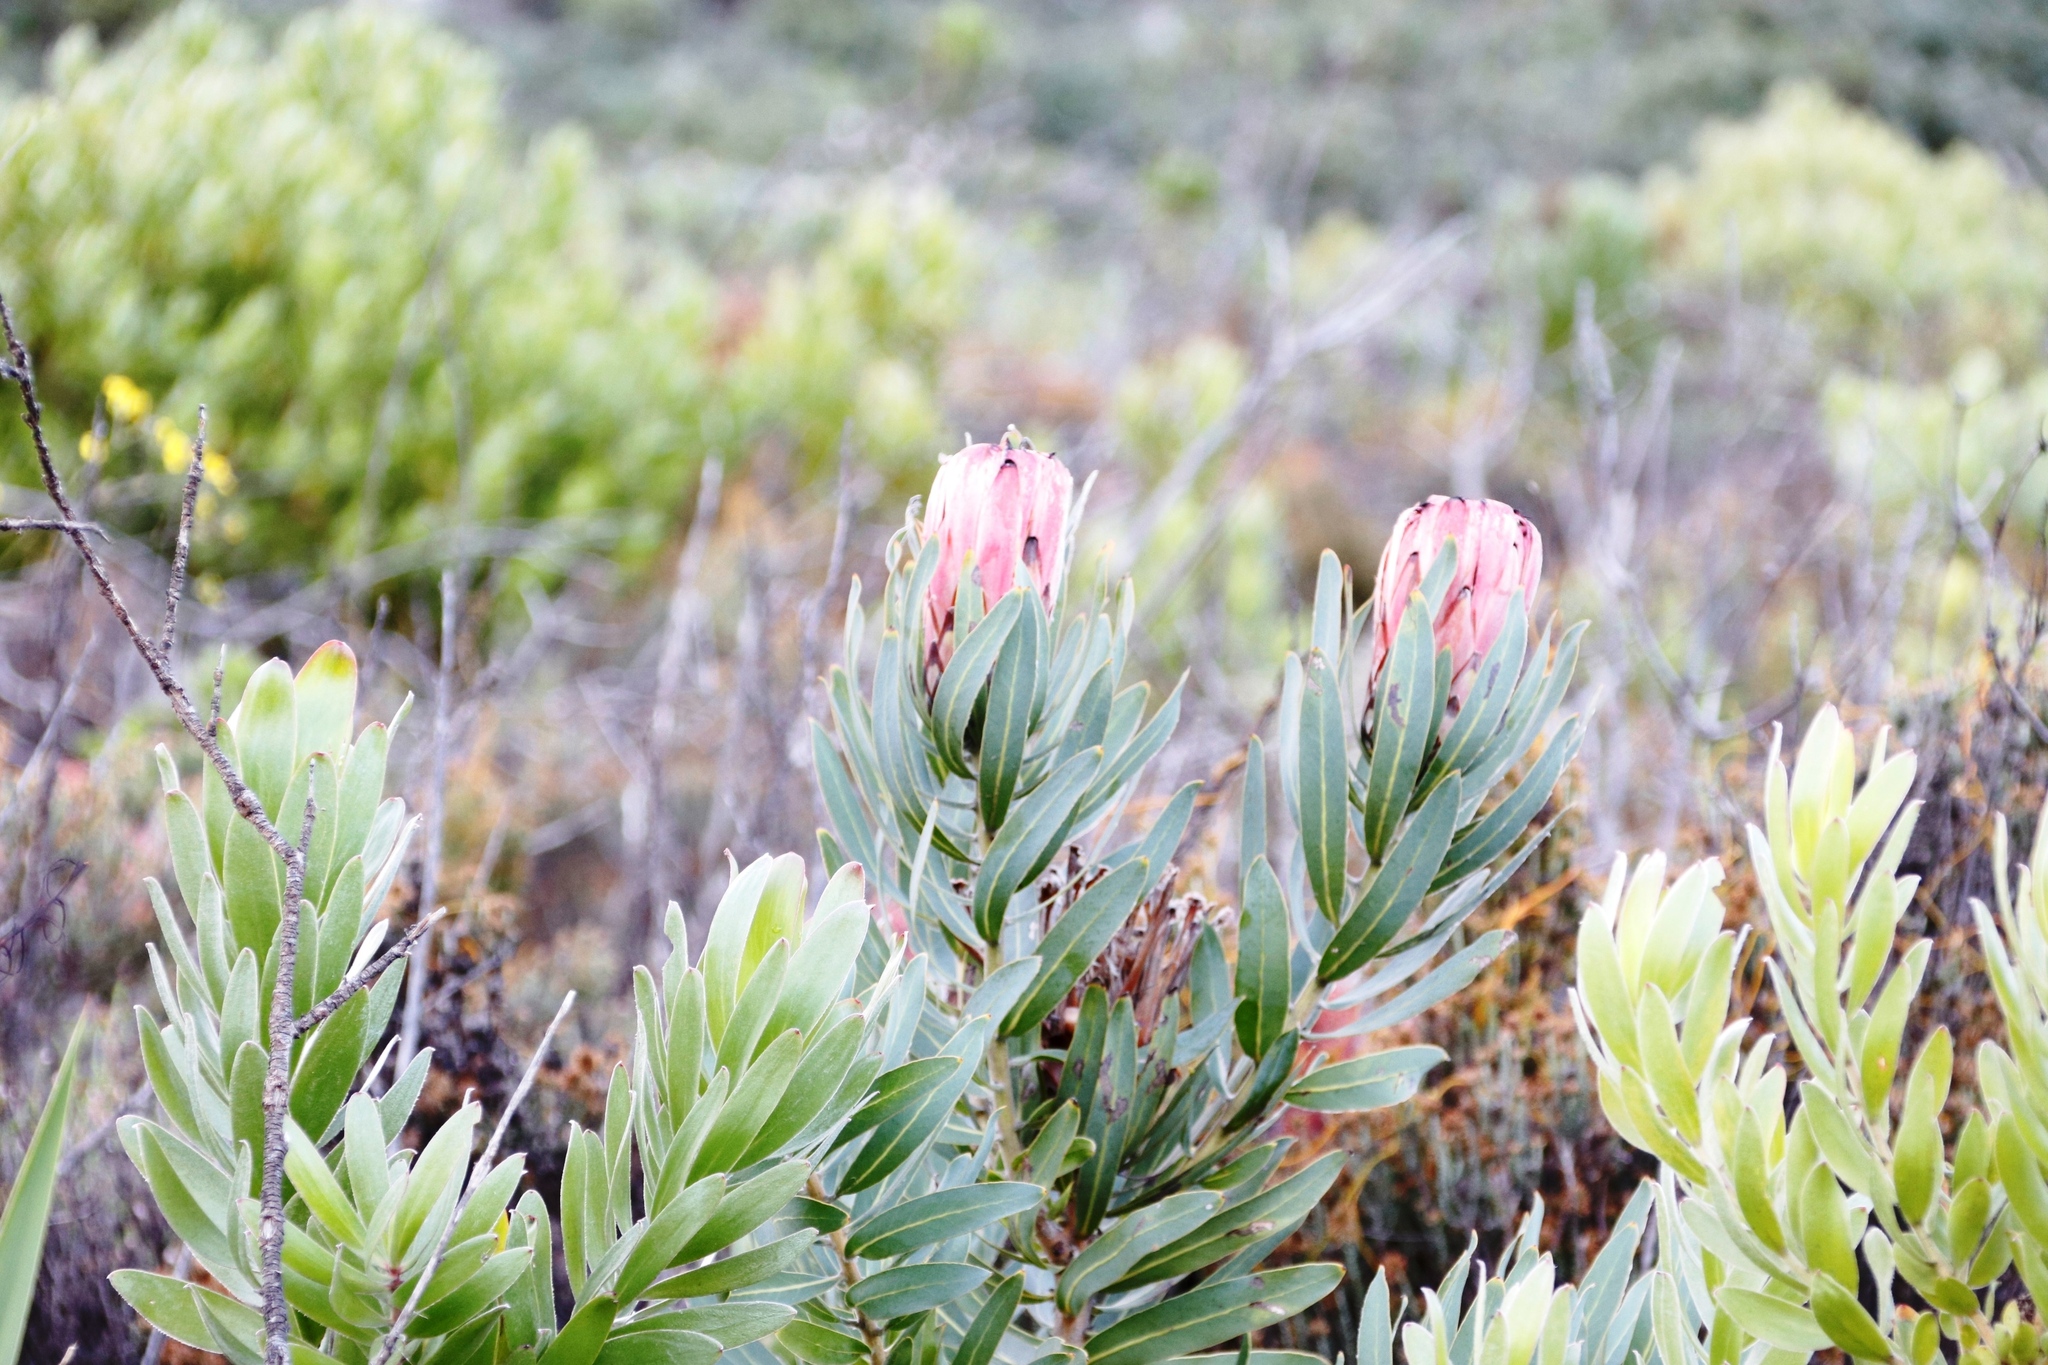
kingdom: Plantae
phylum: Tracheophyta
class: Magnoliopsida
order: Proteales
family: Proteaceae
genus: Protea
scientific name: Protea neriifolia
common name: Blue sugarbush
